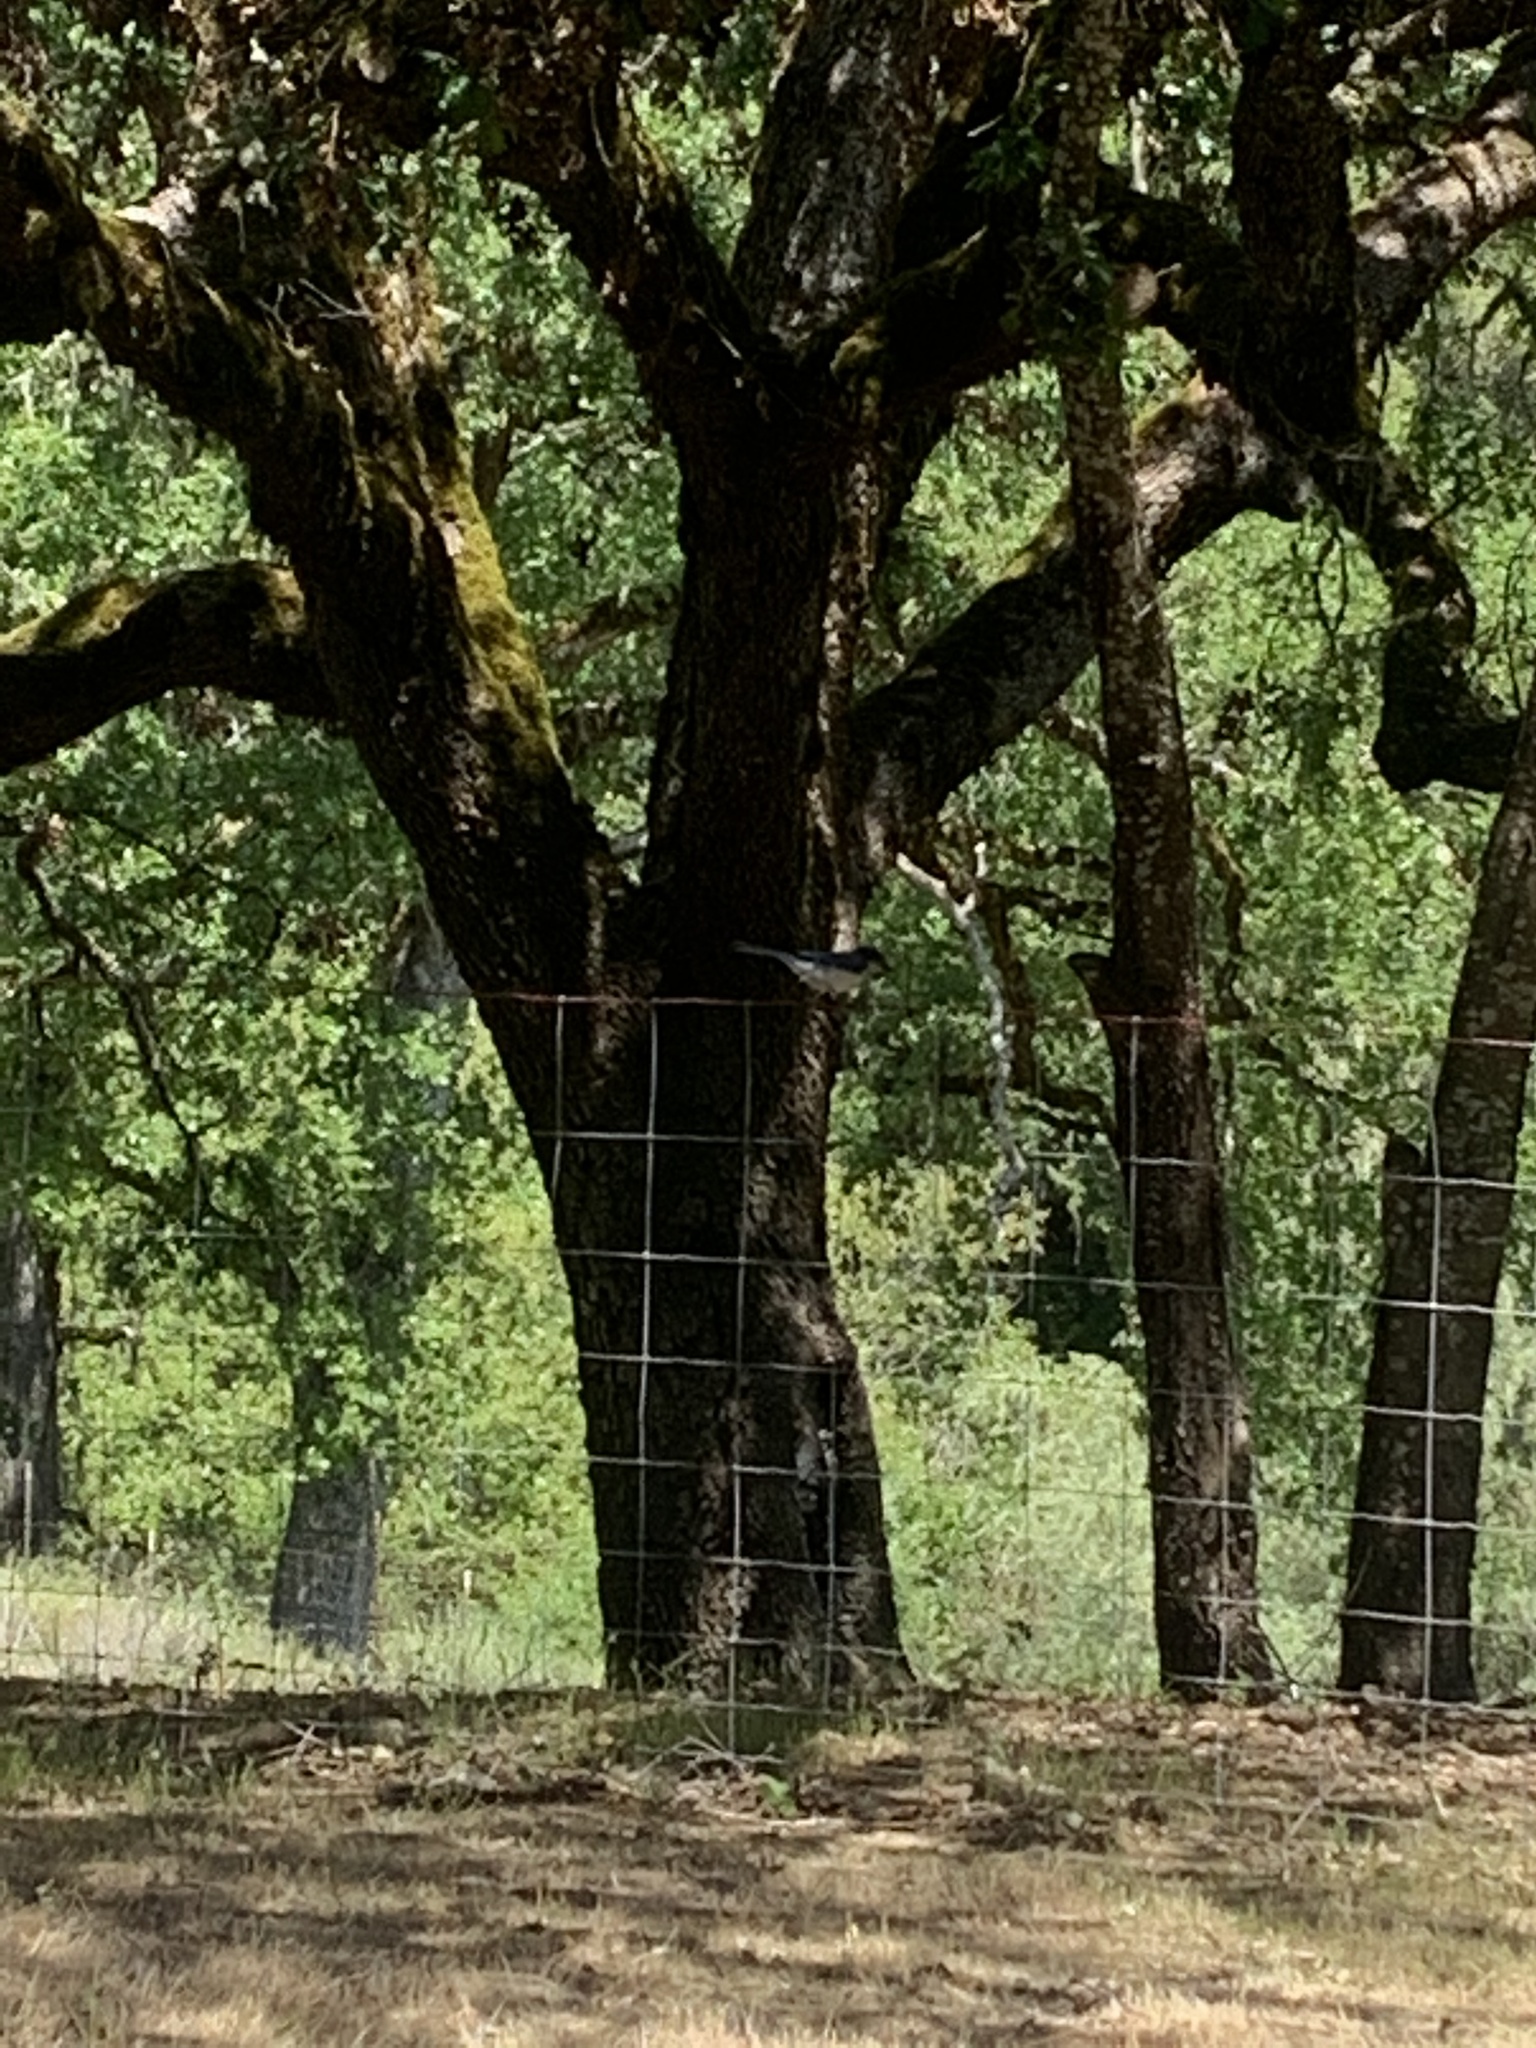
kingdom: Animalia
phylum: Chordata
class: Aves
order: Passeriformes
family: Corvidae
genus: Aphelocoma
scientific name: Aphelocoma californica
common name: California scrub-jay
